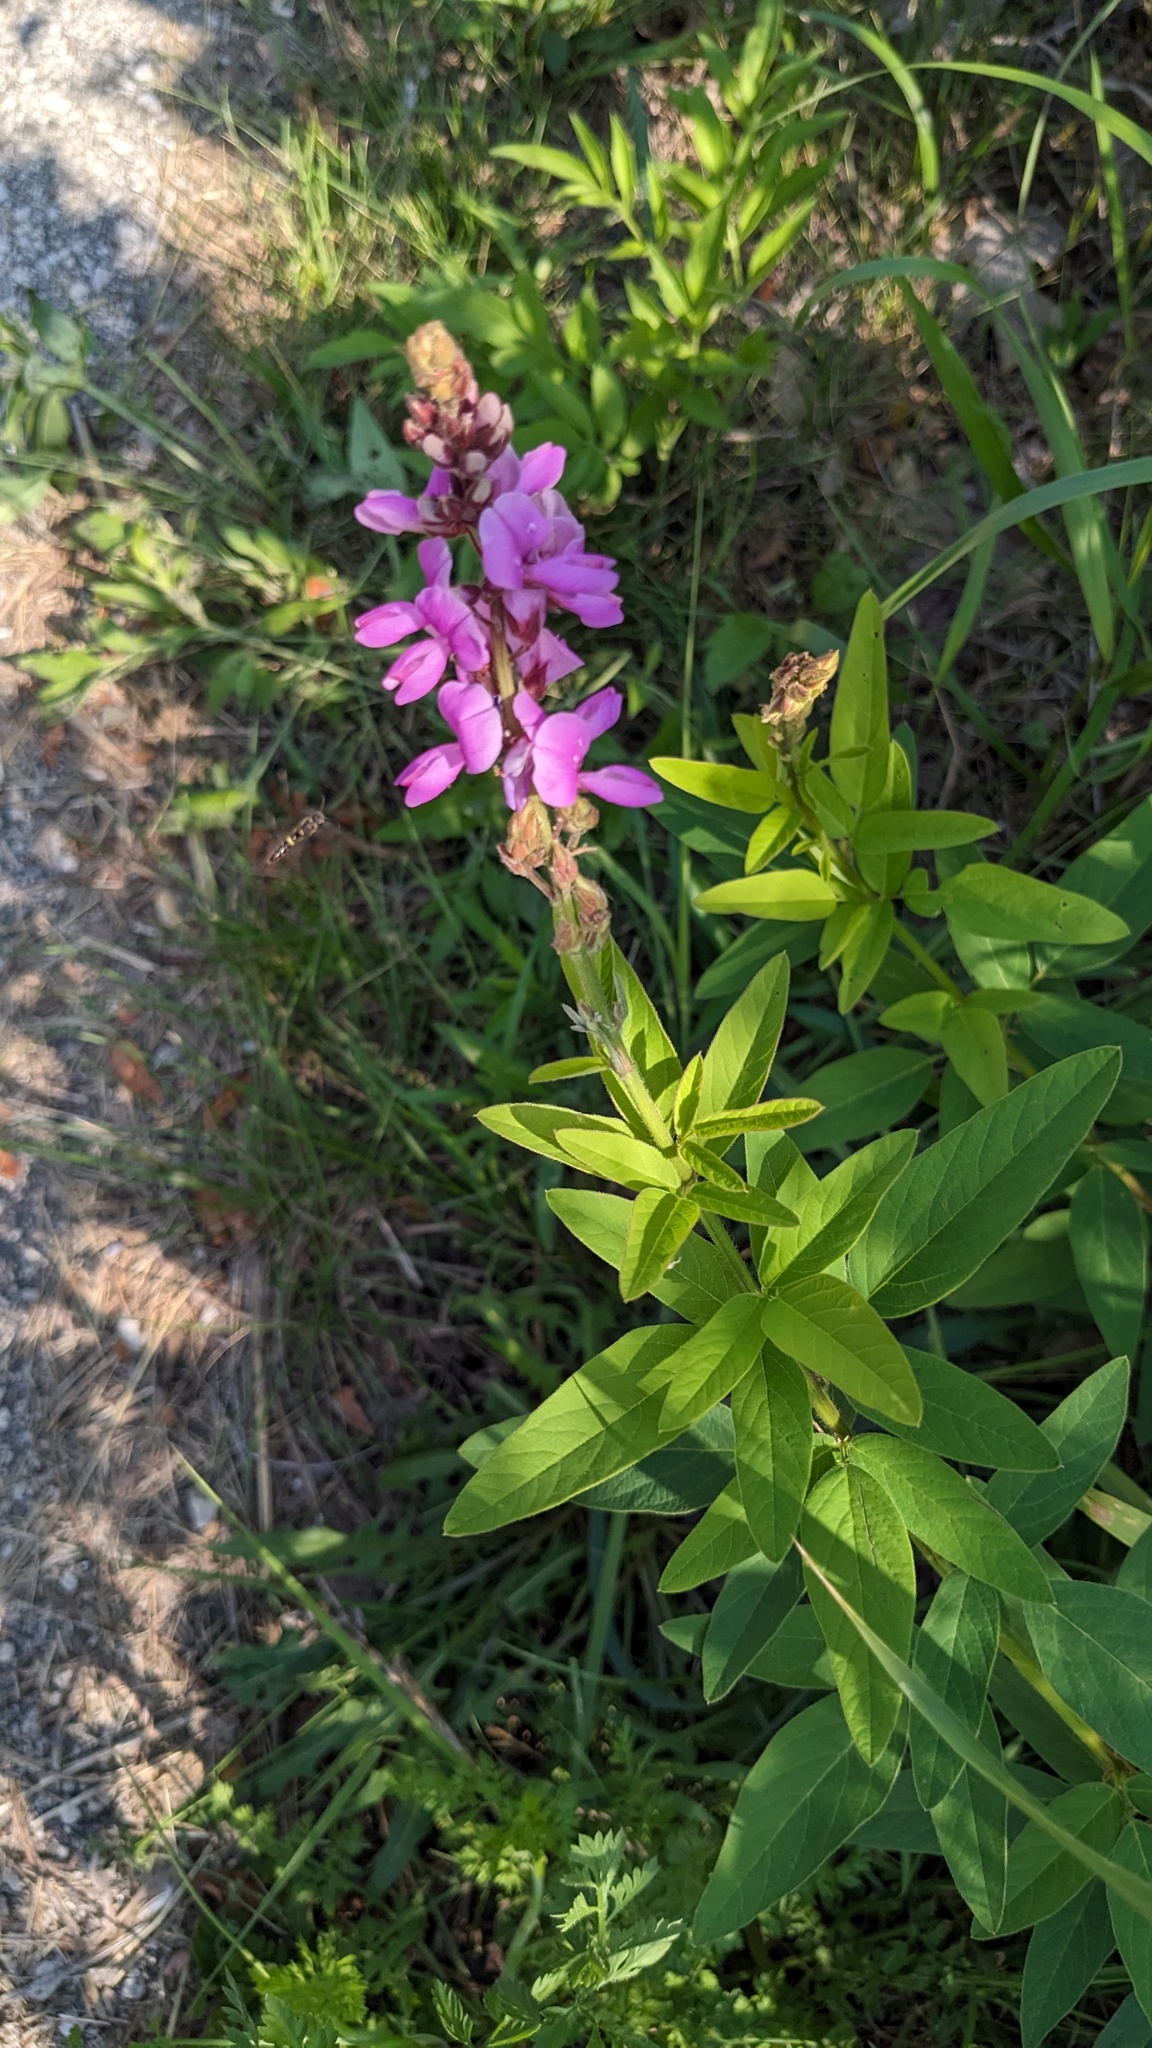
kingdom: Plantae
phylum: Tracheophyta
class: Magnoliopsida
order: Fabales
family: Fabaceae
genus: Desmodium
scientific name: Desmodium canadense
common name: Canada tick-trefoil
